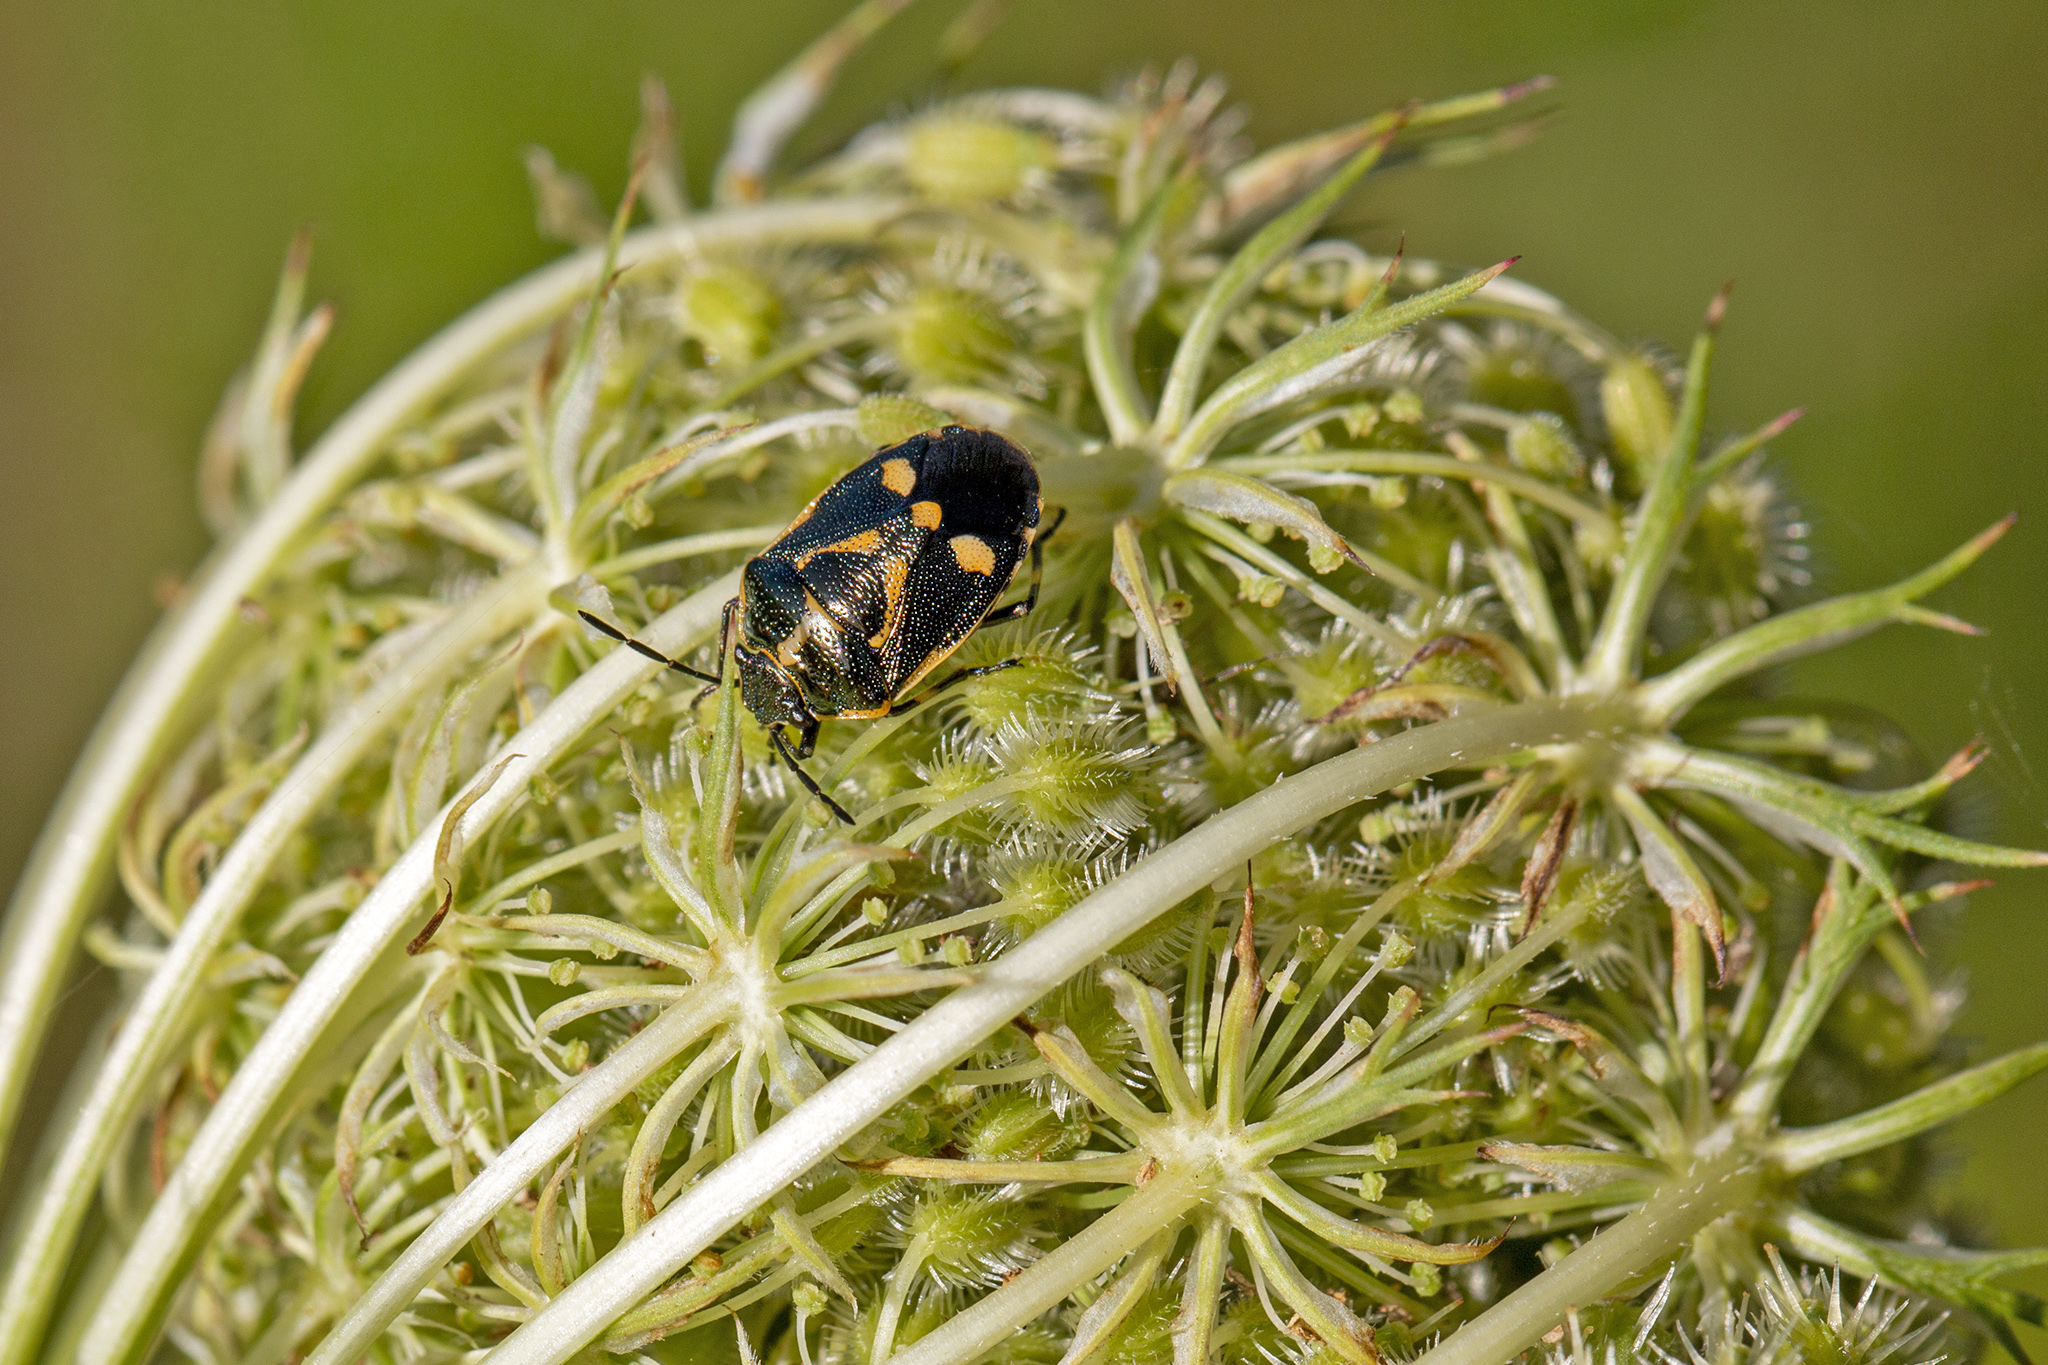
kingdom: Animalia
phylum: Arthropoda
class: Insecta
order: Hemiptera
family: Pentatomidae
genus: Eurydema
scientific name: Eurydema oleracea
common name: Cabbage bug
